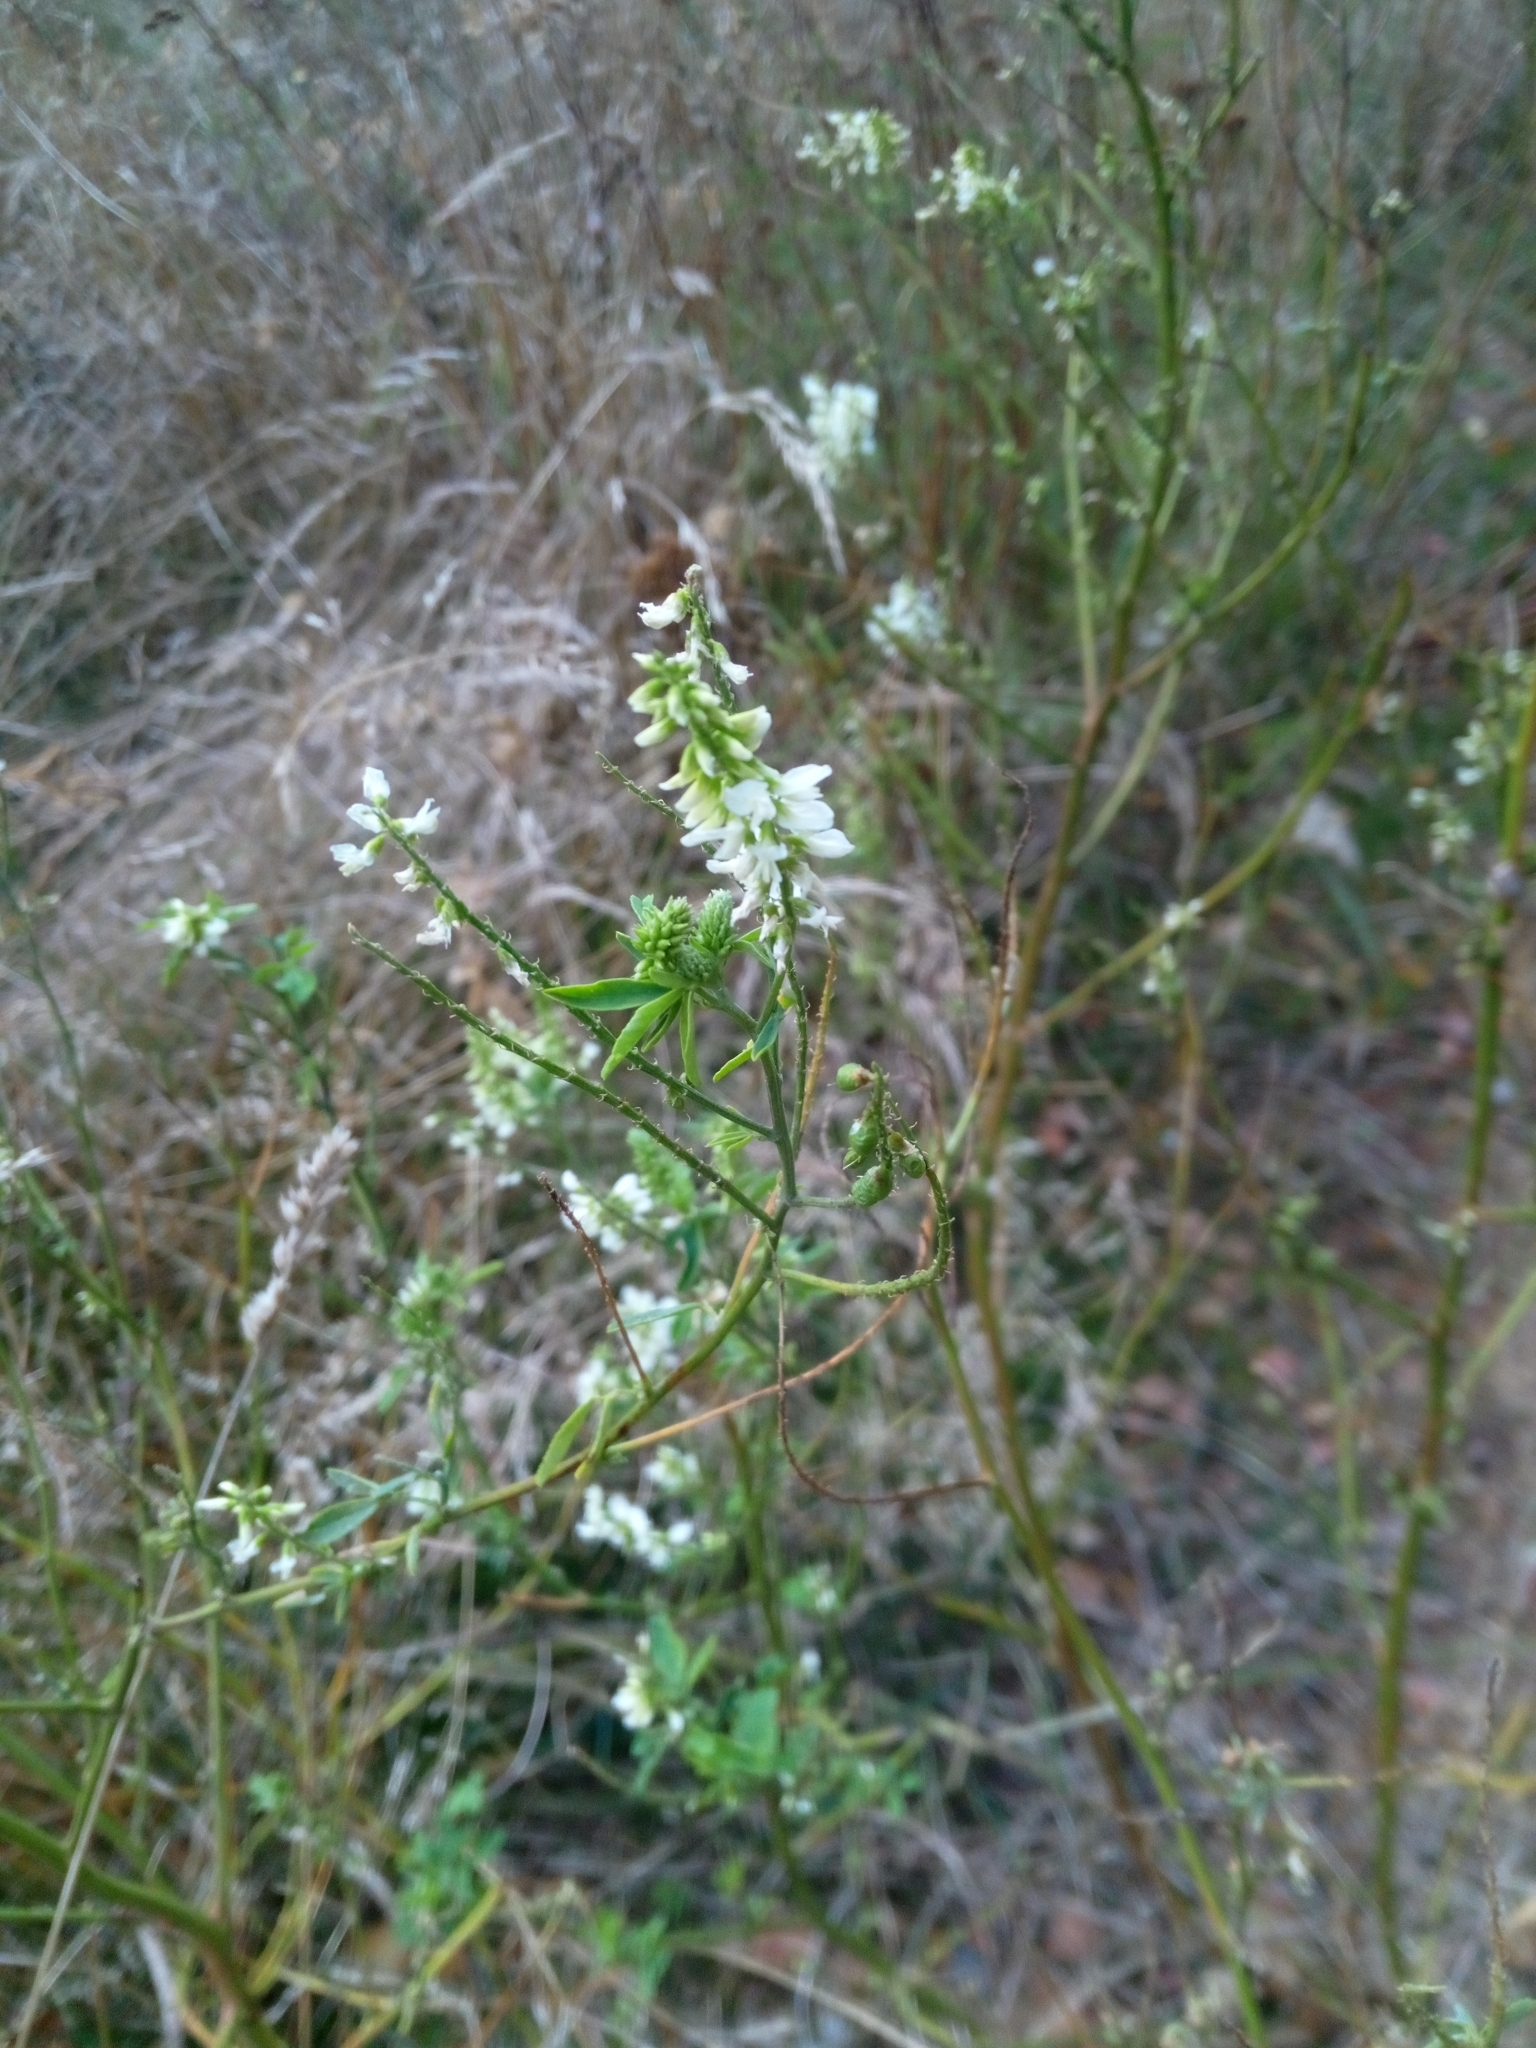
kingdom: Plantae
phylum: Tracheophyta
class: Magnoliopsida
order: Fabales
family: Fabaceae
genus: Melilotus
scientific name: Melilotus albus
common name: White melilot
